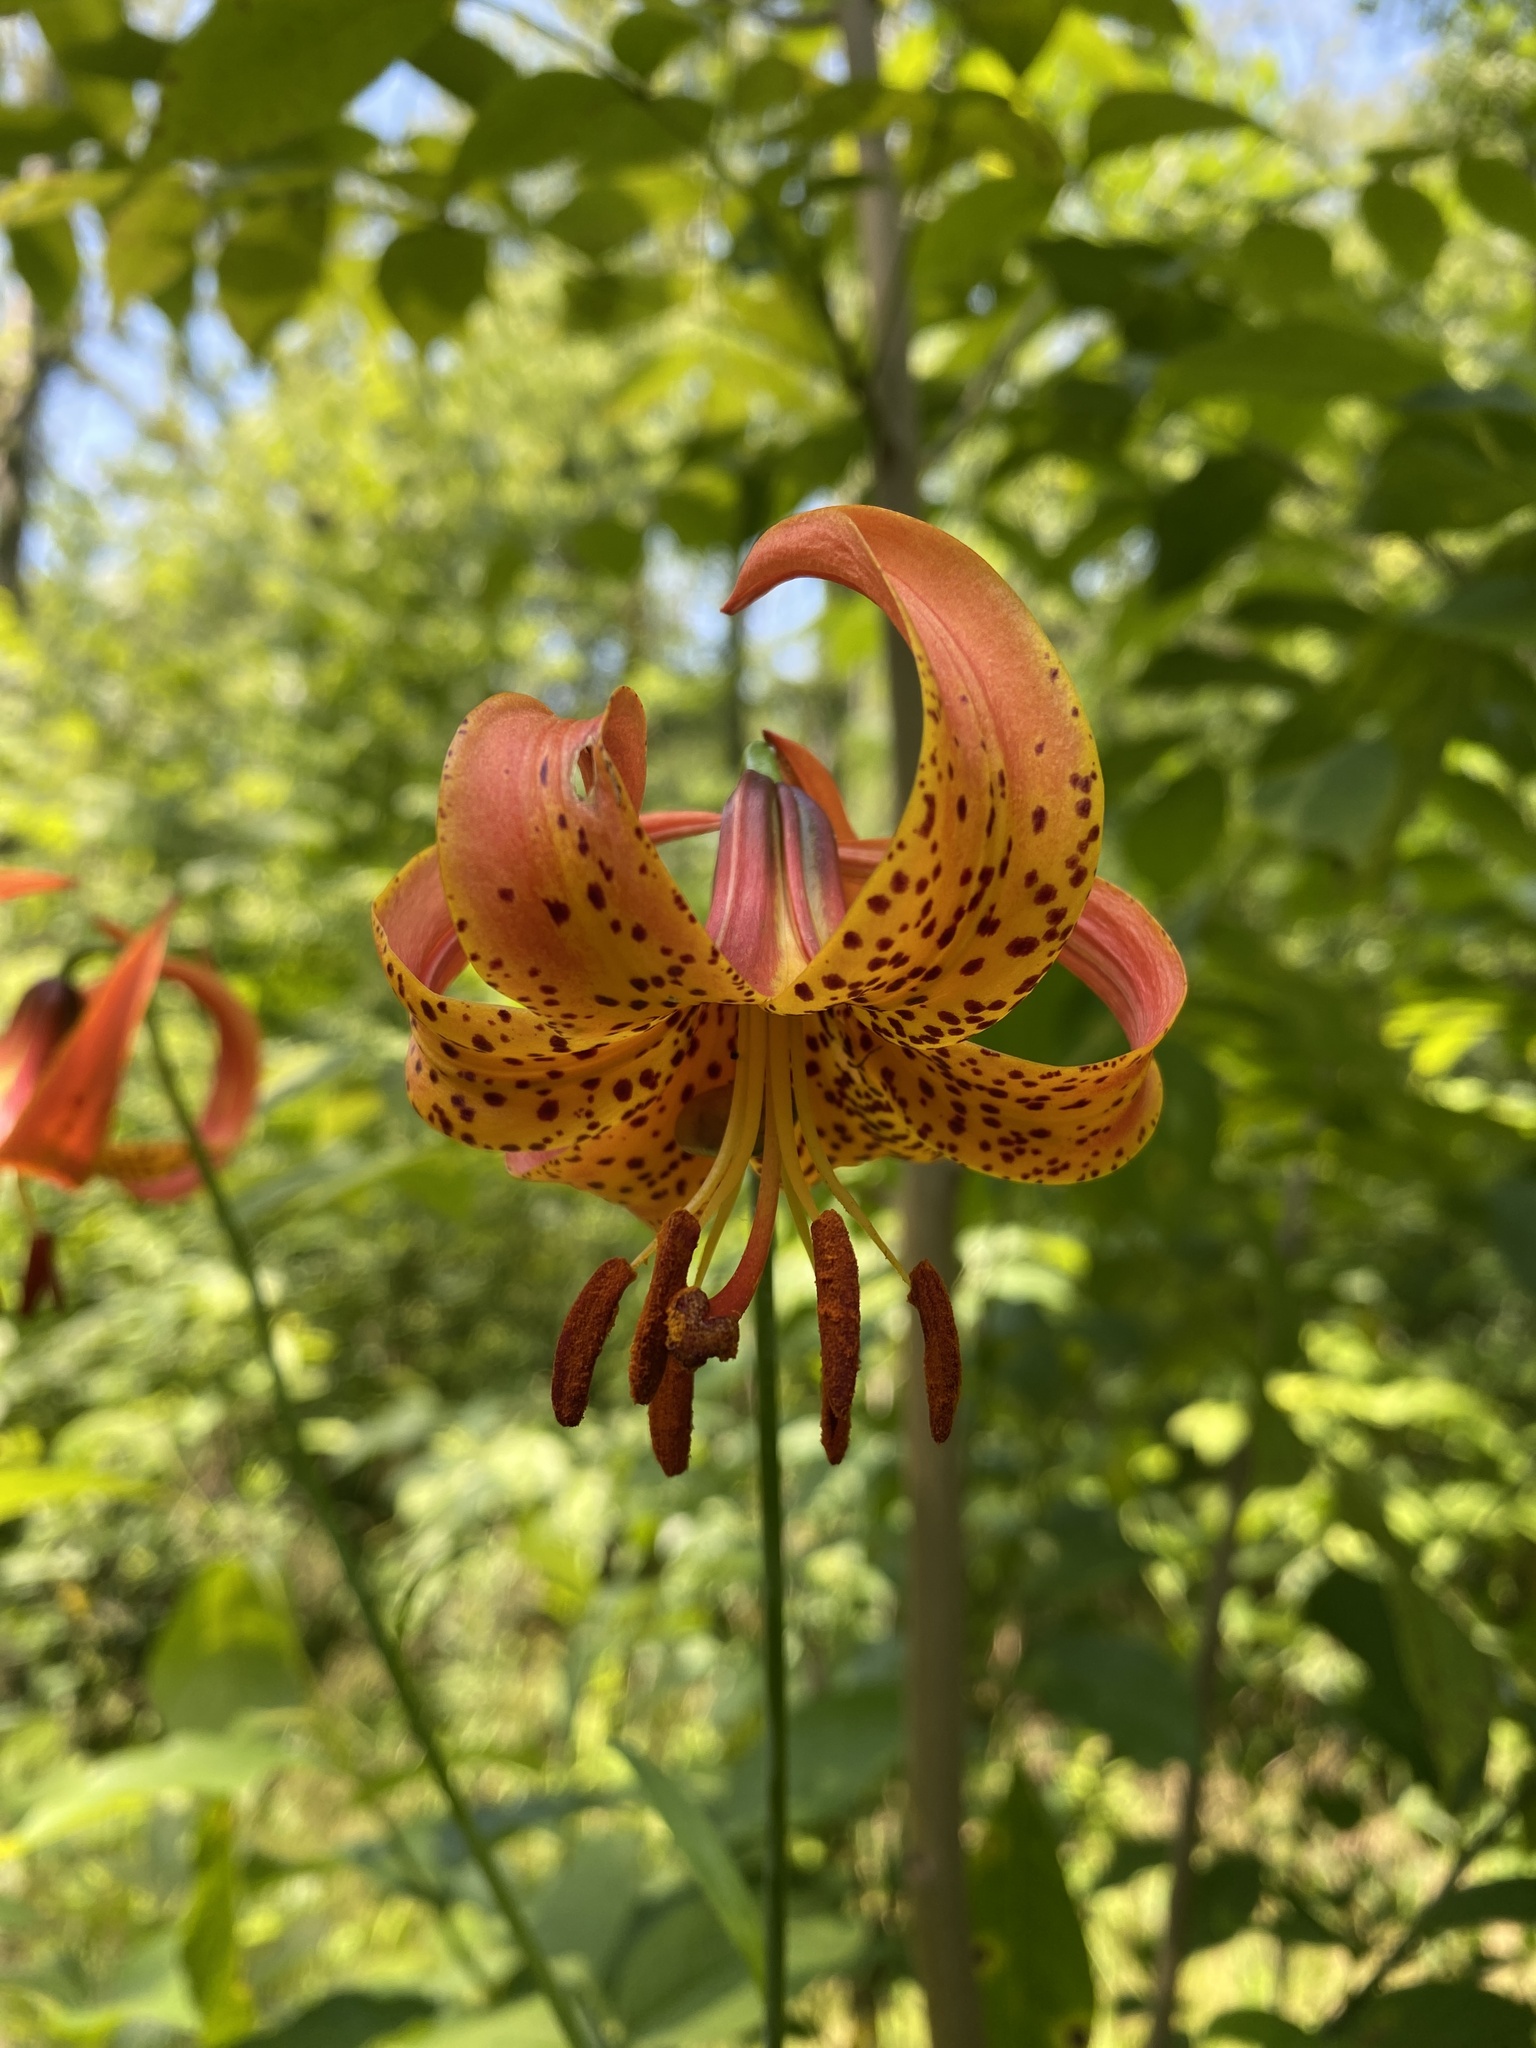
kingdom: Plantae
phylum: Tracheophyta
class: Liliopsida
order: Liliales
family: Liliaceae
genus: Lilium
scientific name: Lilium michiganense
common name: Michigan lily
